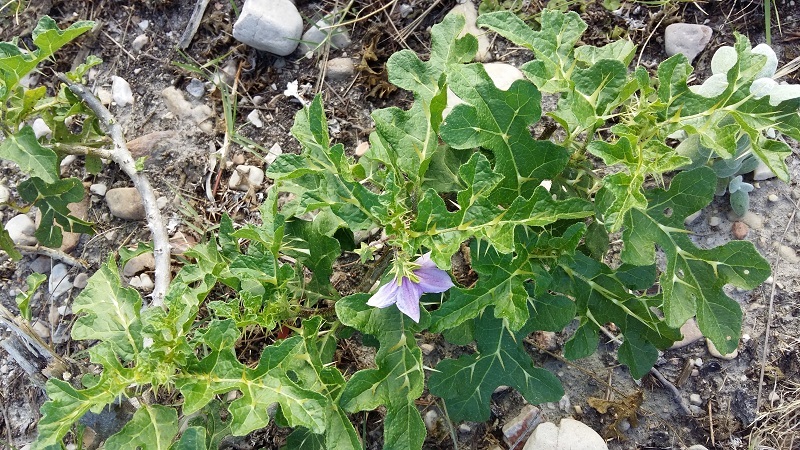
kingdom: Plantae
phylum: Tracheophyta
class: Magnoliopsida
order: Solanales
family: Solanaceae
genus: Solanum
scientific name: Solanum linnaeanum
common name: Nightshade
